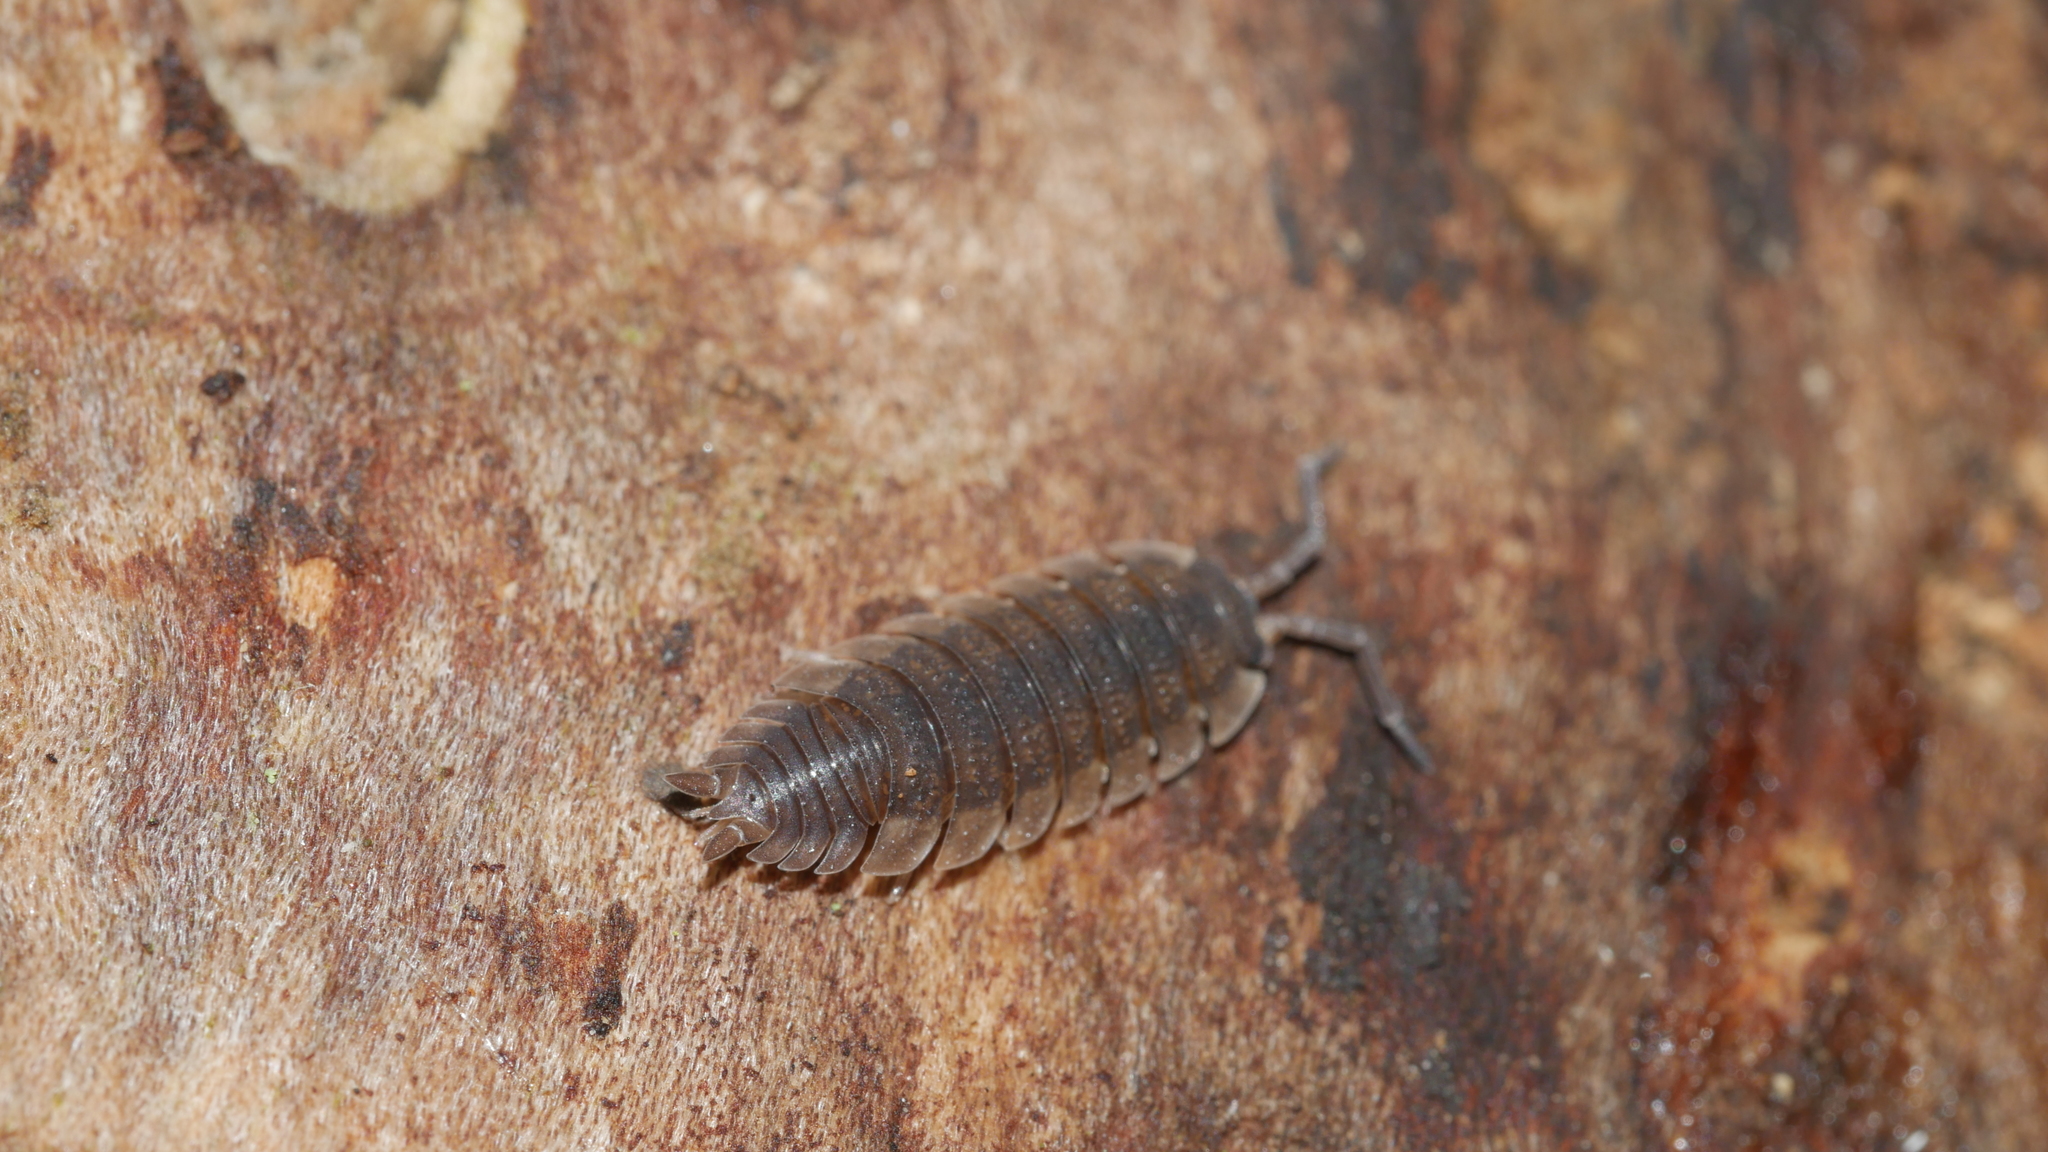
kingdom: Animalia
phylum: Arthropoda
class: Malacostraca
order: Isopoda
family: Porcellionidae
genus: Porcellio
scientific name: Porcellio scaber
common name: Common rough woodlouse
